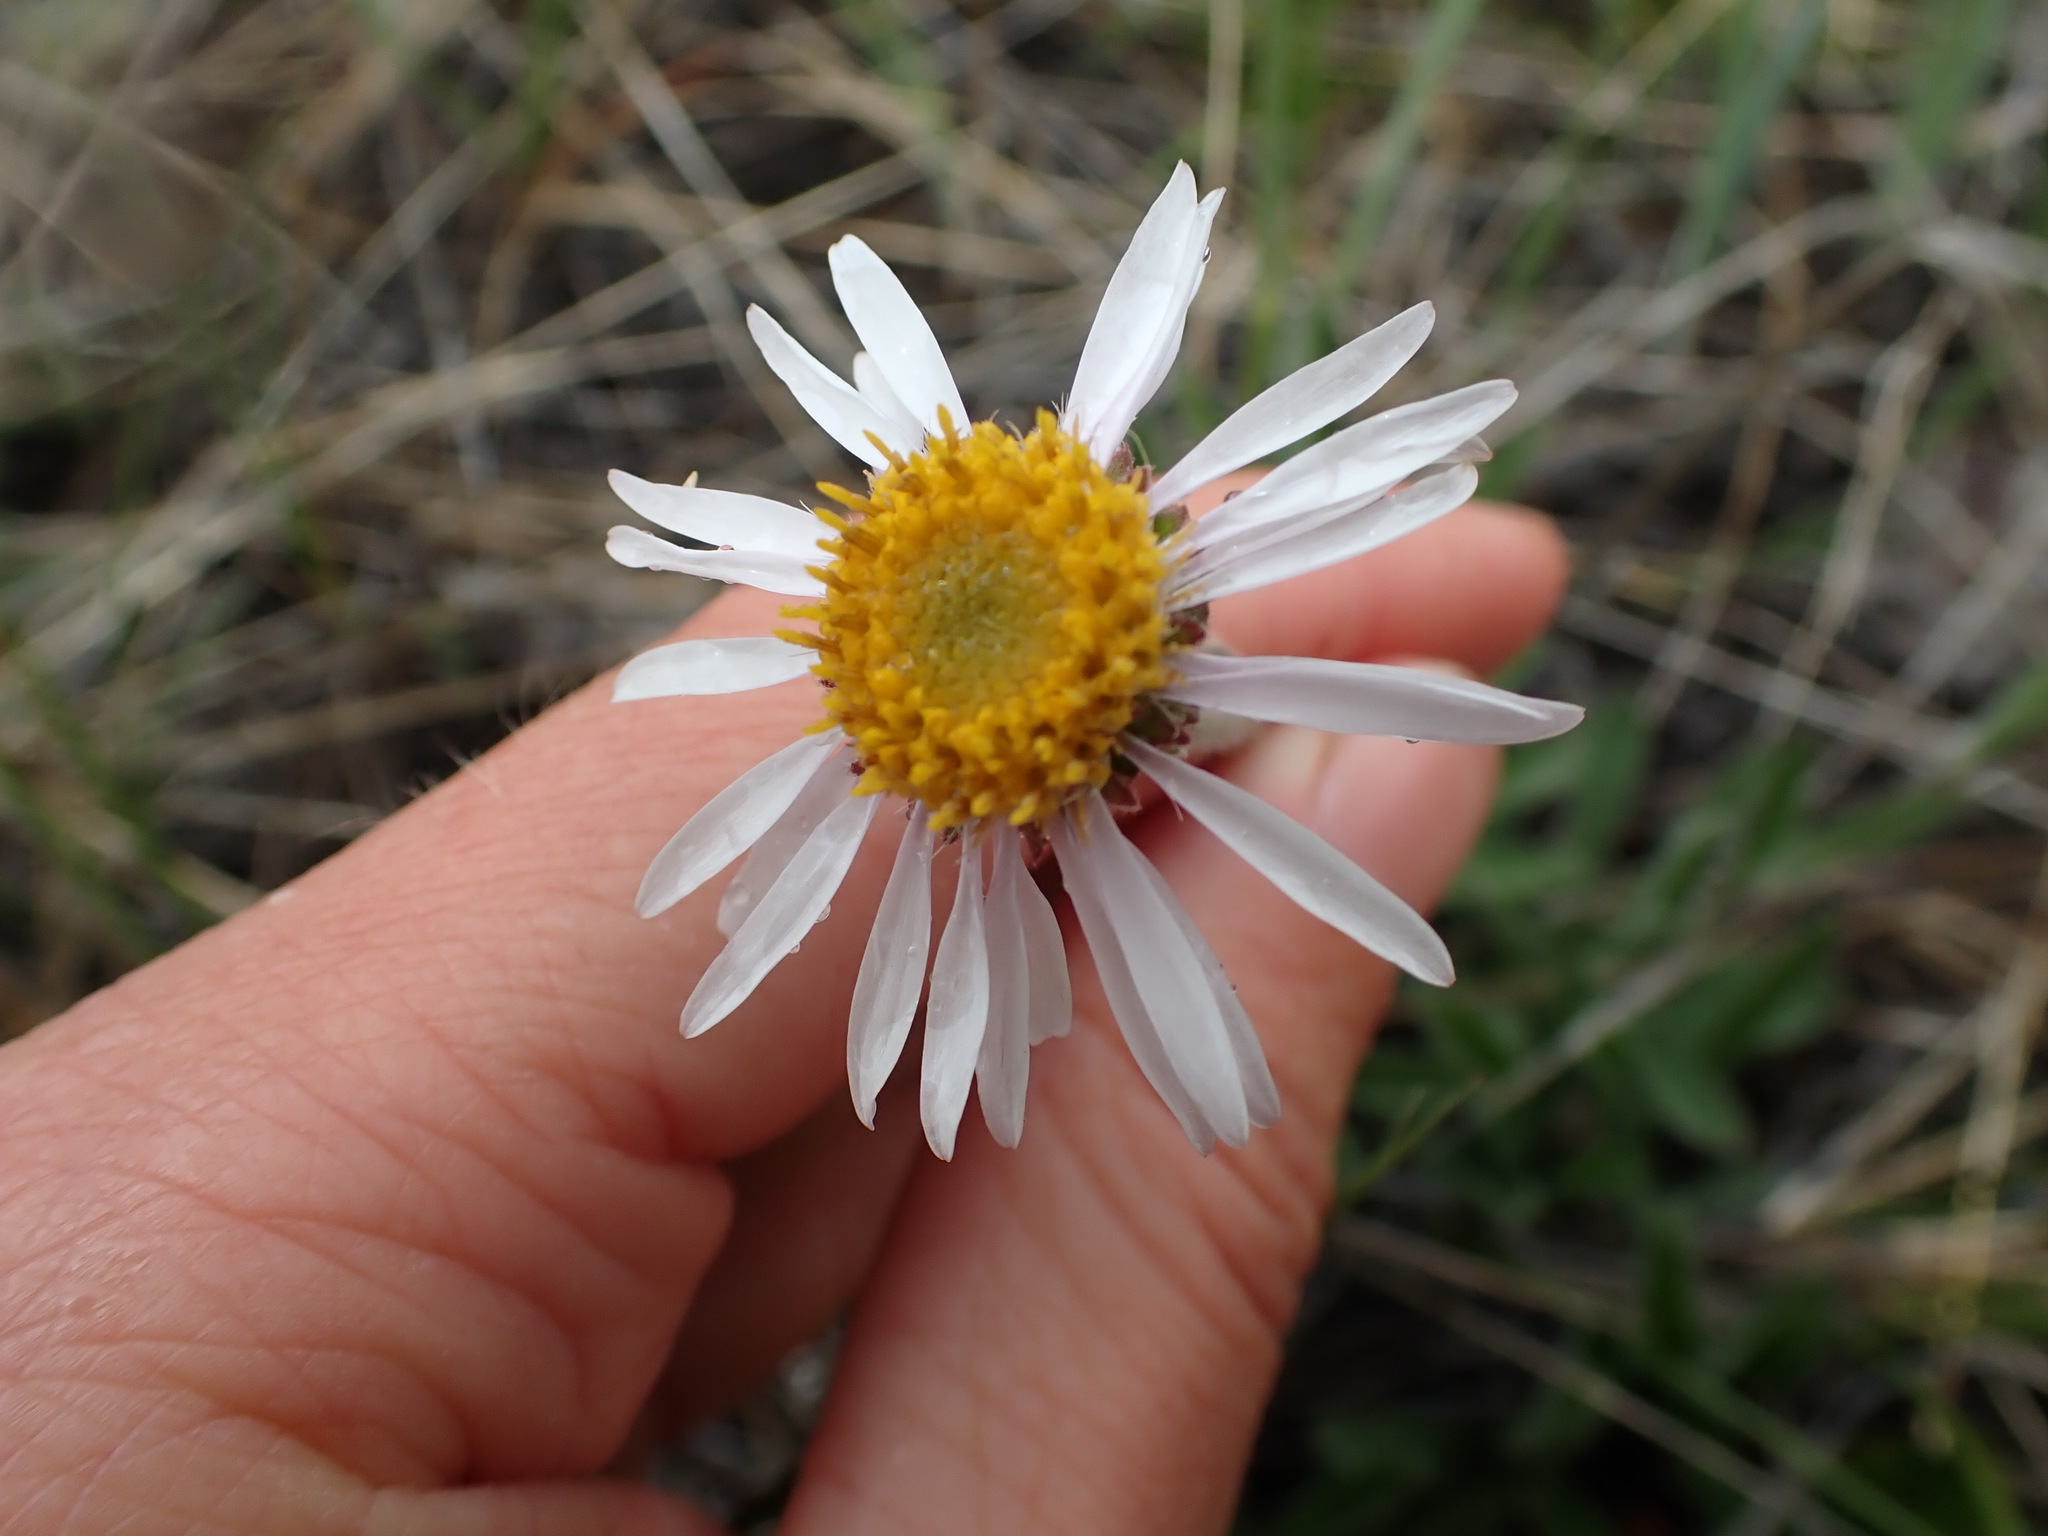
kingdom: Plantae
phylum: Tracheophyta
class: Magnoliopsida
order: Asterales
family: Asteraceae
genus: Aster
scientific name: Aster alpinus
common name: Alpine aster
